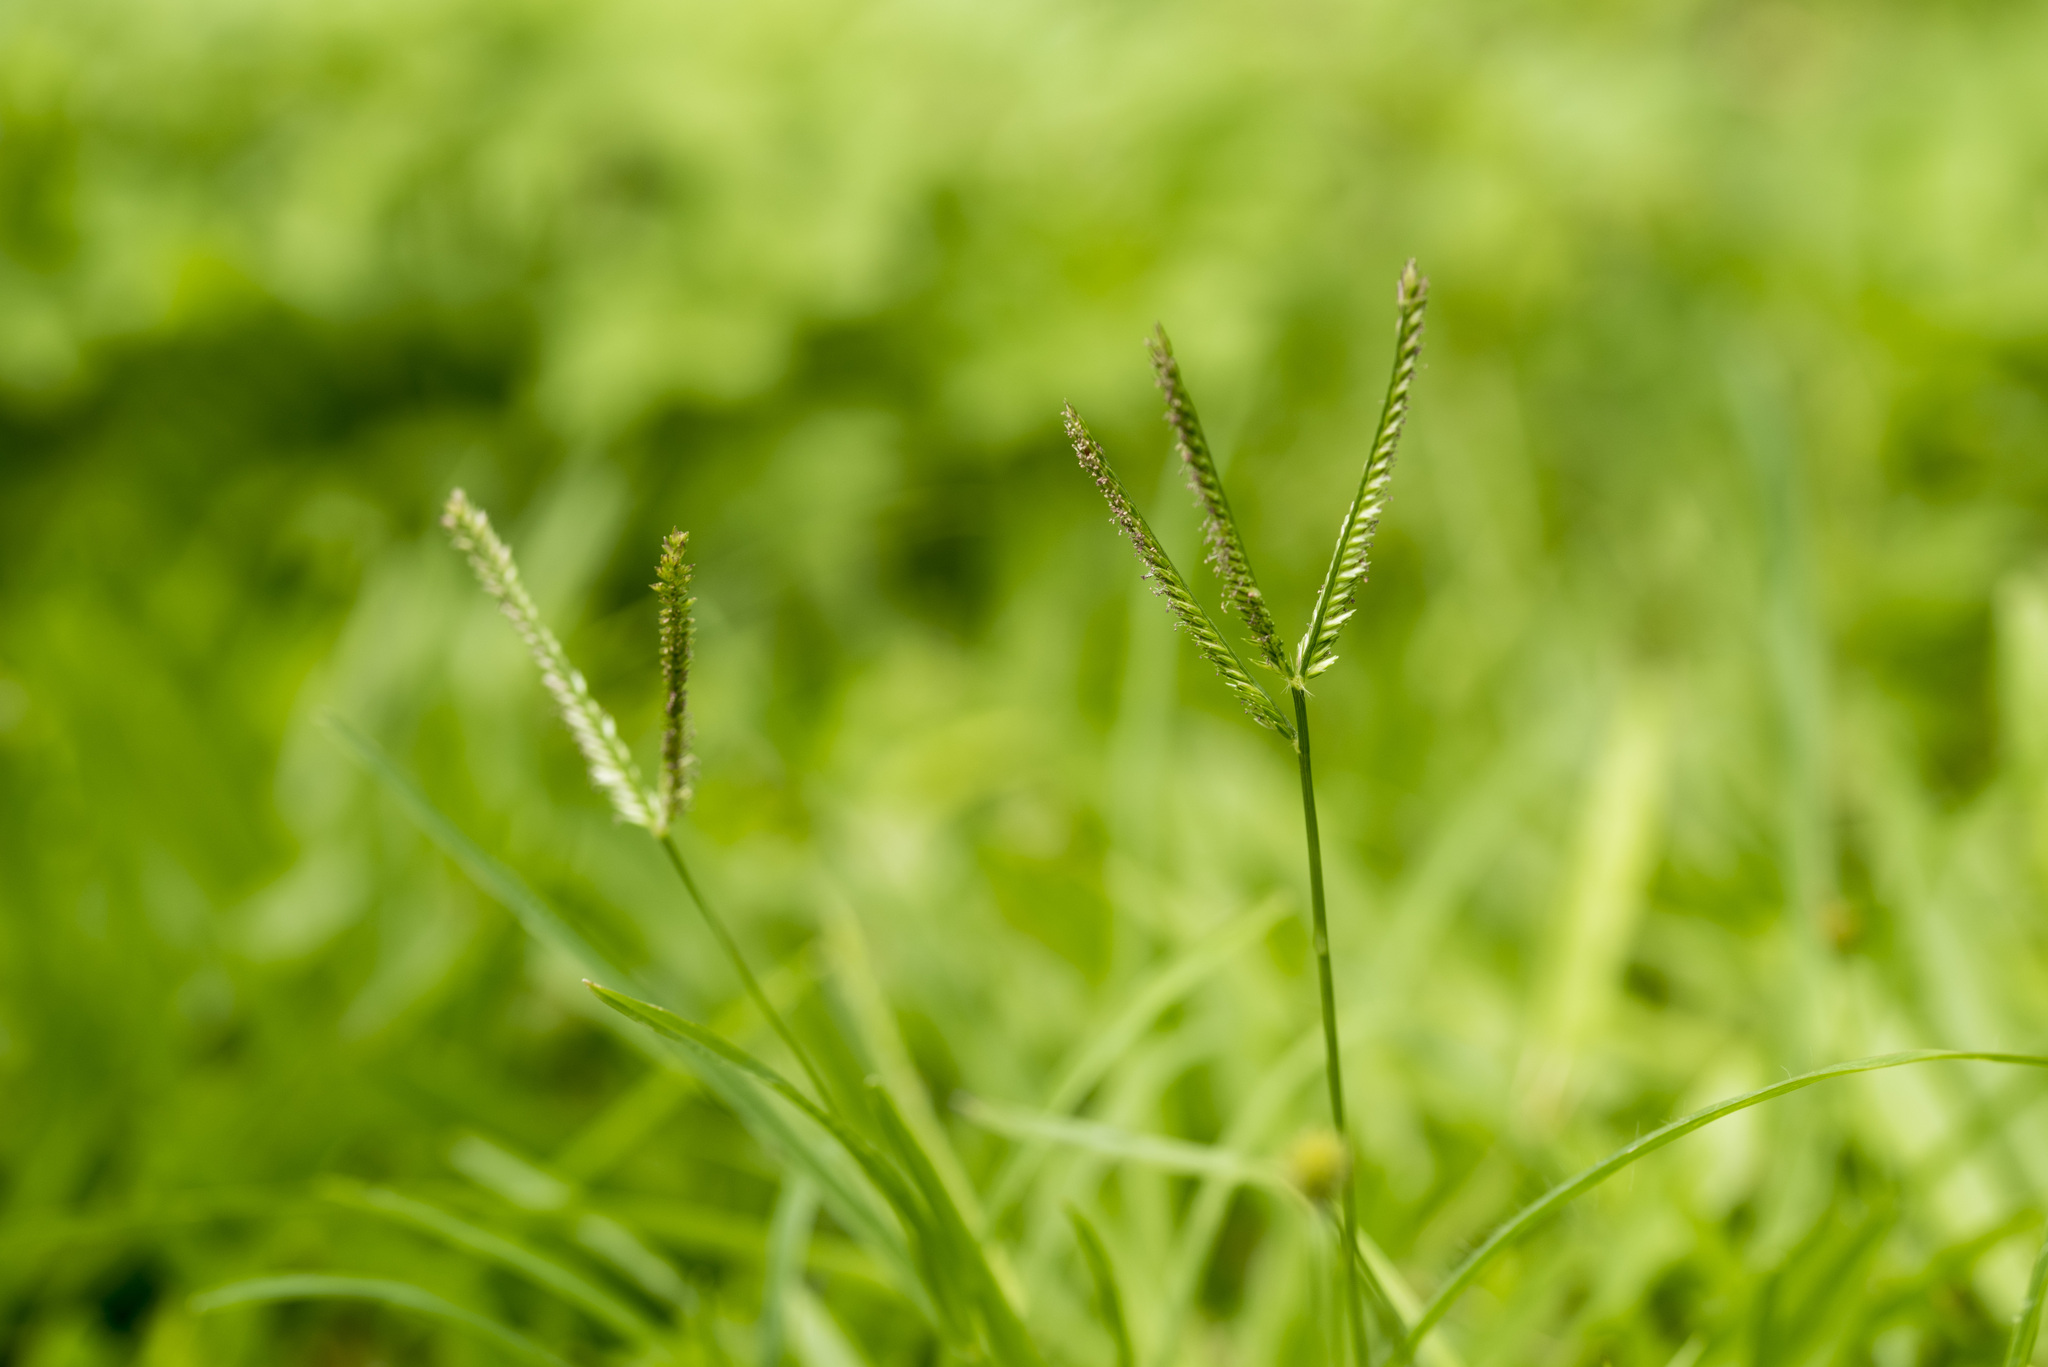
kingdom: Plantae
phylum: Tracheophyta
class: Liliopsida
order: Poales
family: Poaceae
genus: Eleusine
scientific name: Eleusine indica
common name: Yard-grass
